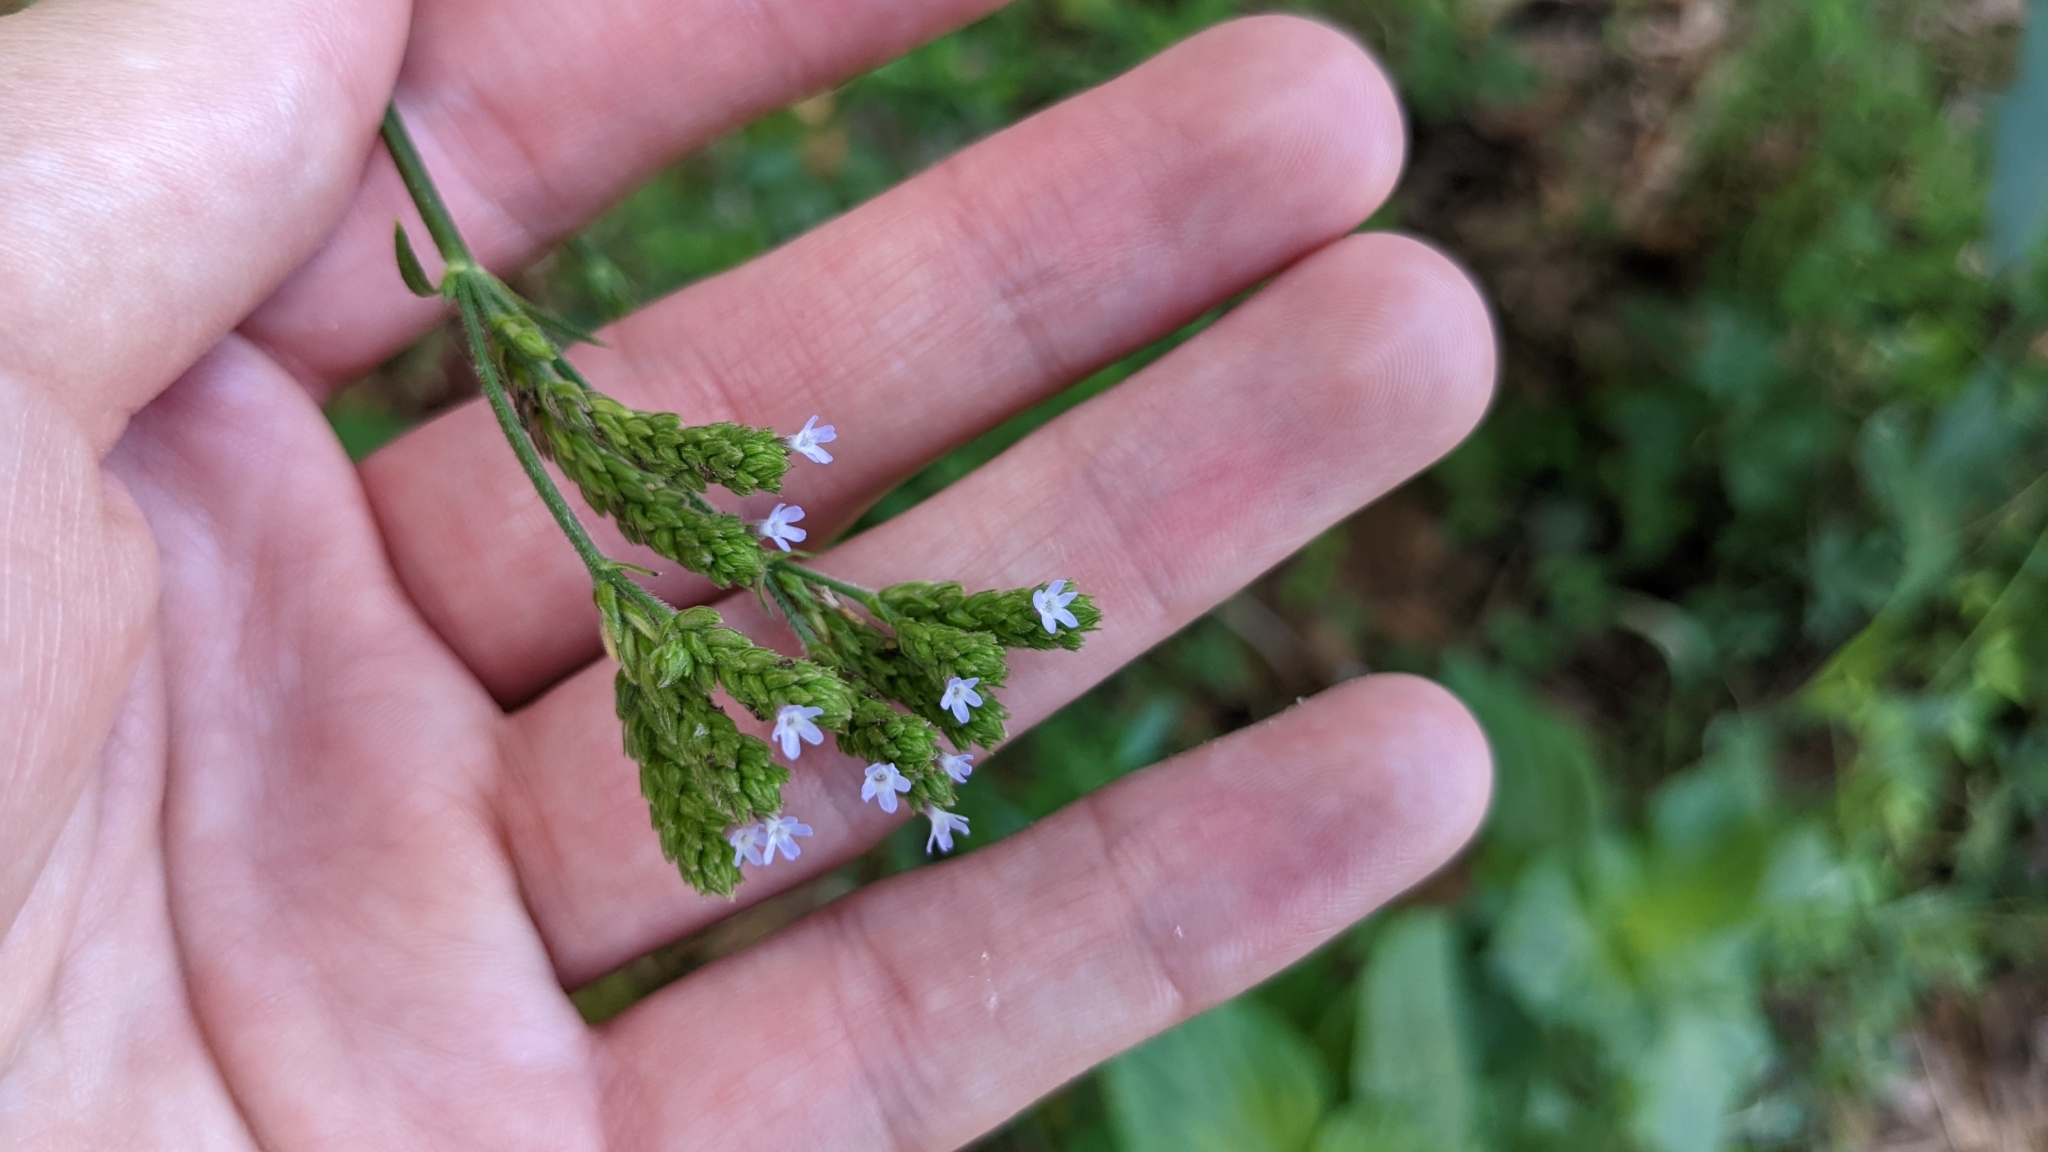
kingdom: Plantae
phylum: Tracheophyta
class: Magnoliopsida
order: Lamiales
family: Verbenaceae
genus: Verbena
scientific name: Verbena brasiliensis
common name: Brazilian vervain
